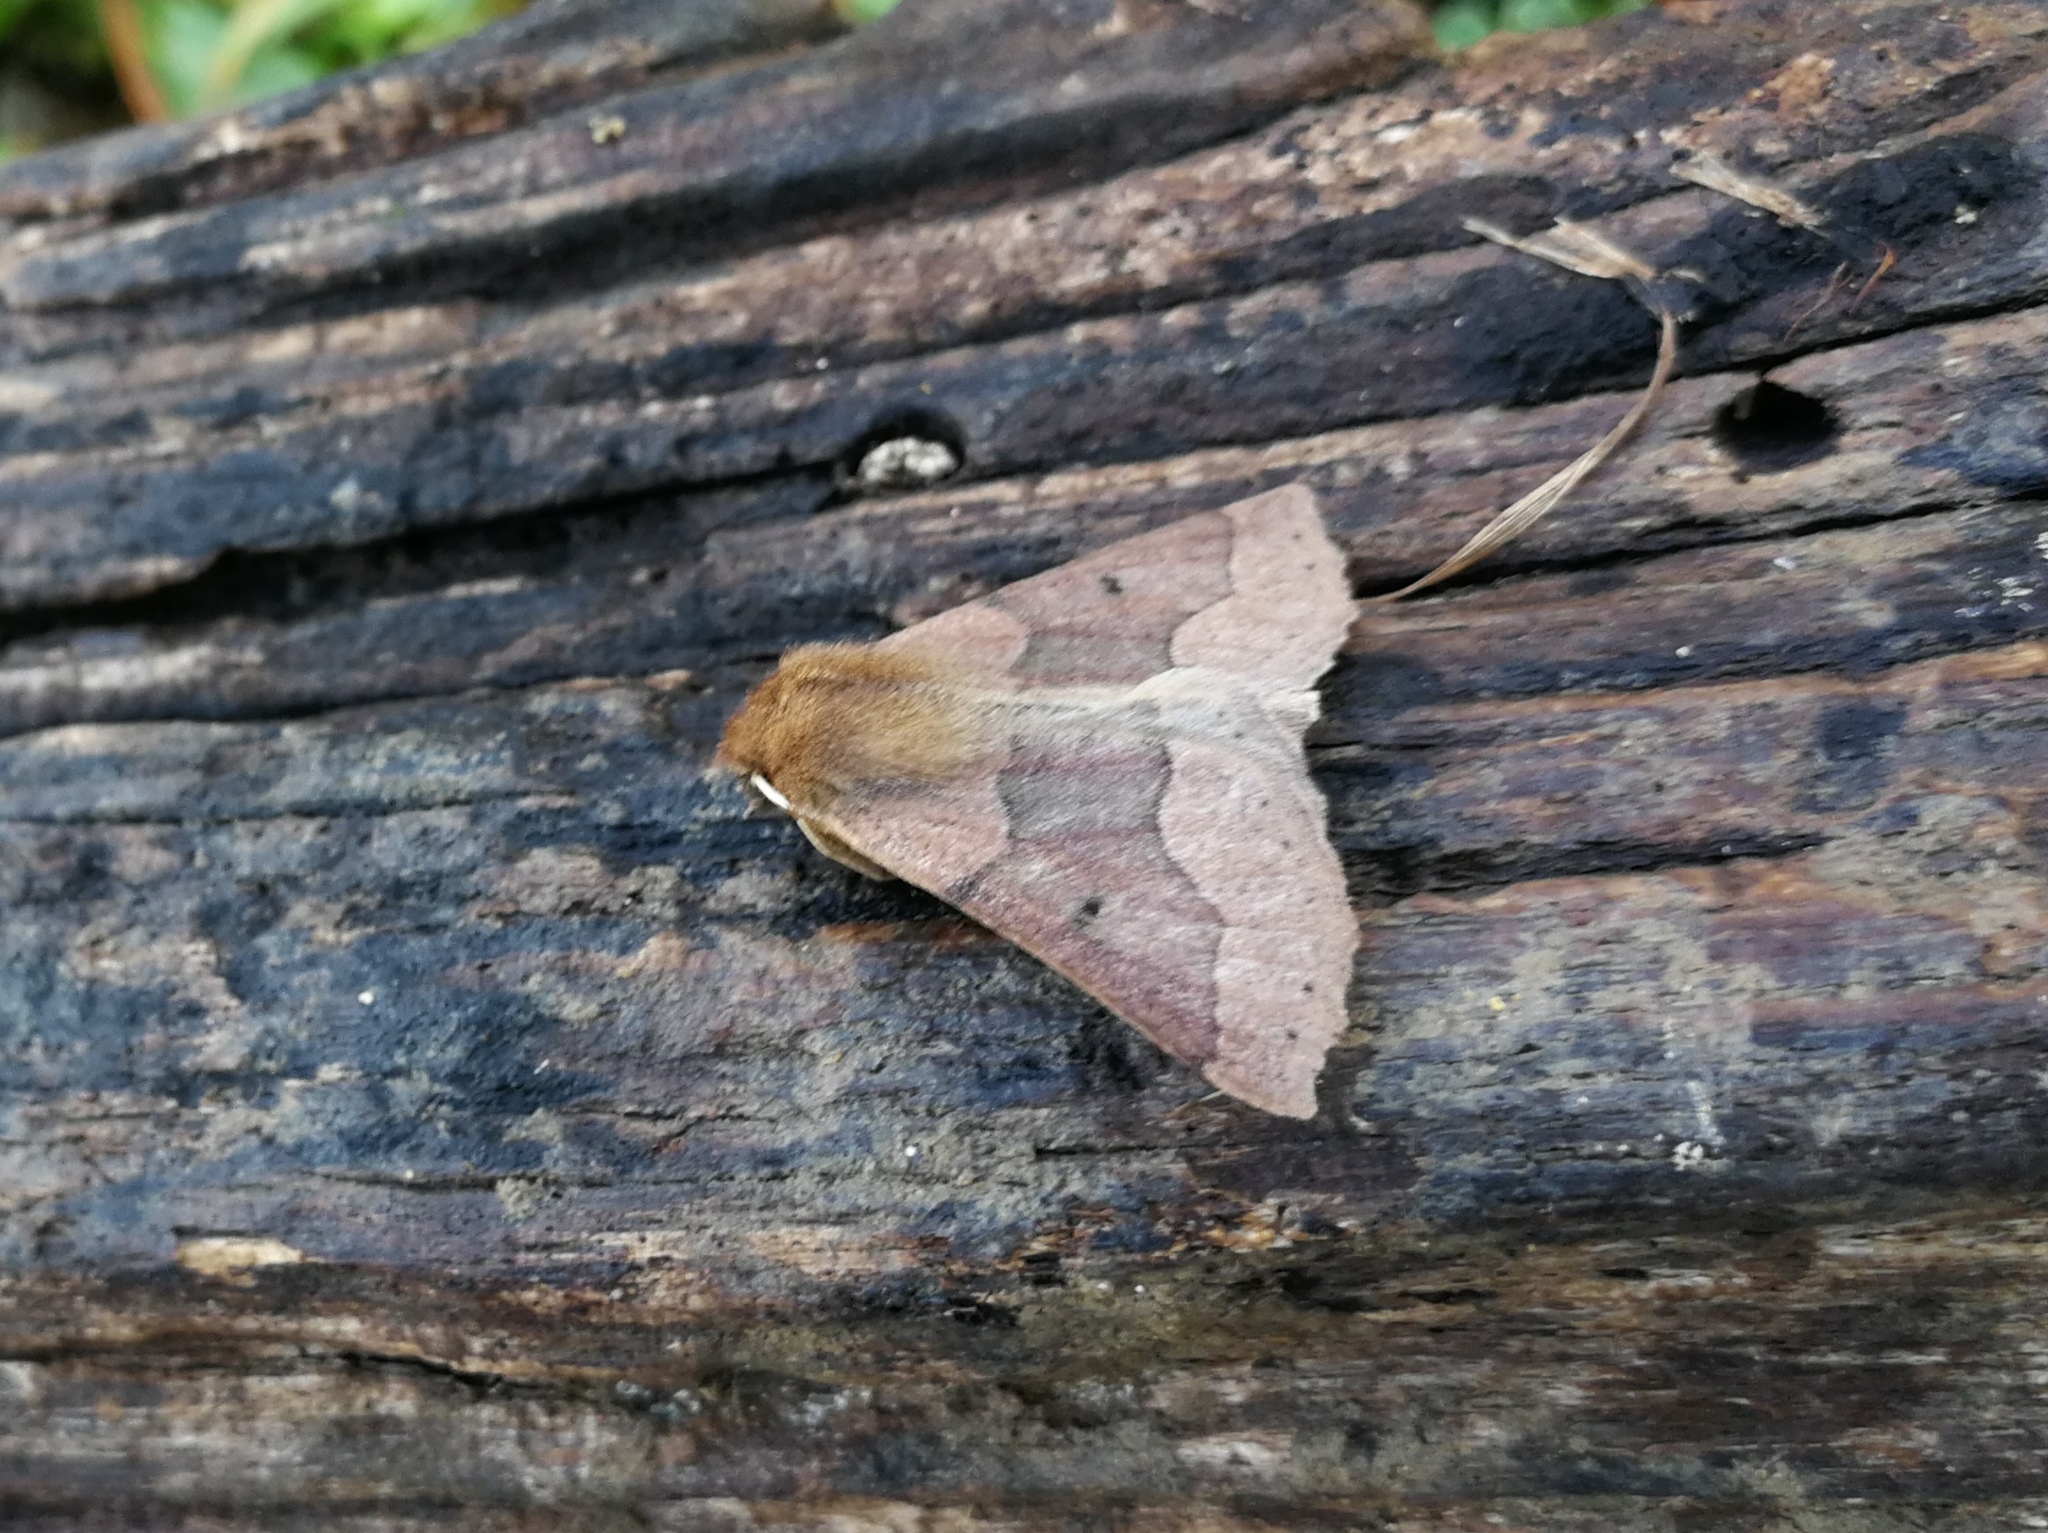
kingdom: Animalia
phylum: Arthropoda
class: Insecta
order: Lepidoptera
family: Geometridae
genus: Crocallis
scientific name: Crocallis tusciaria
